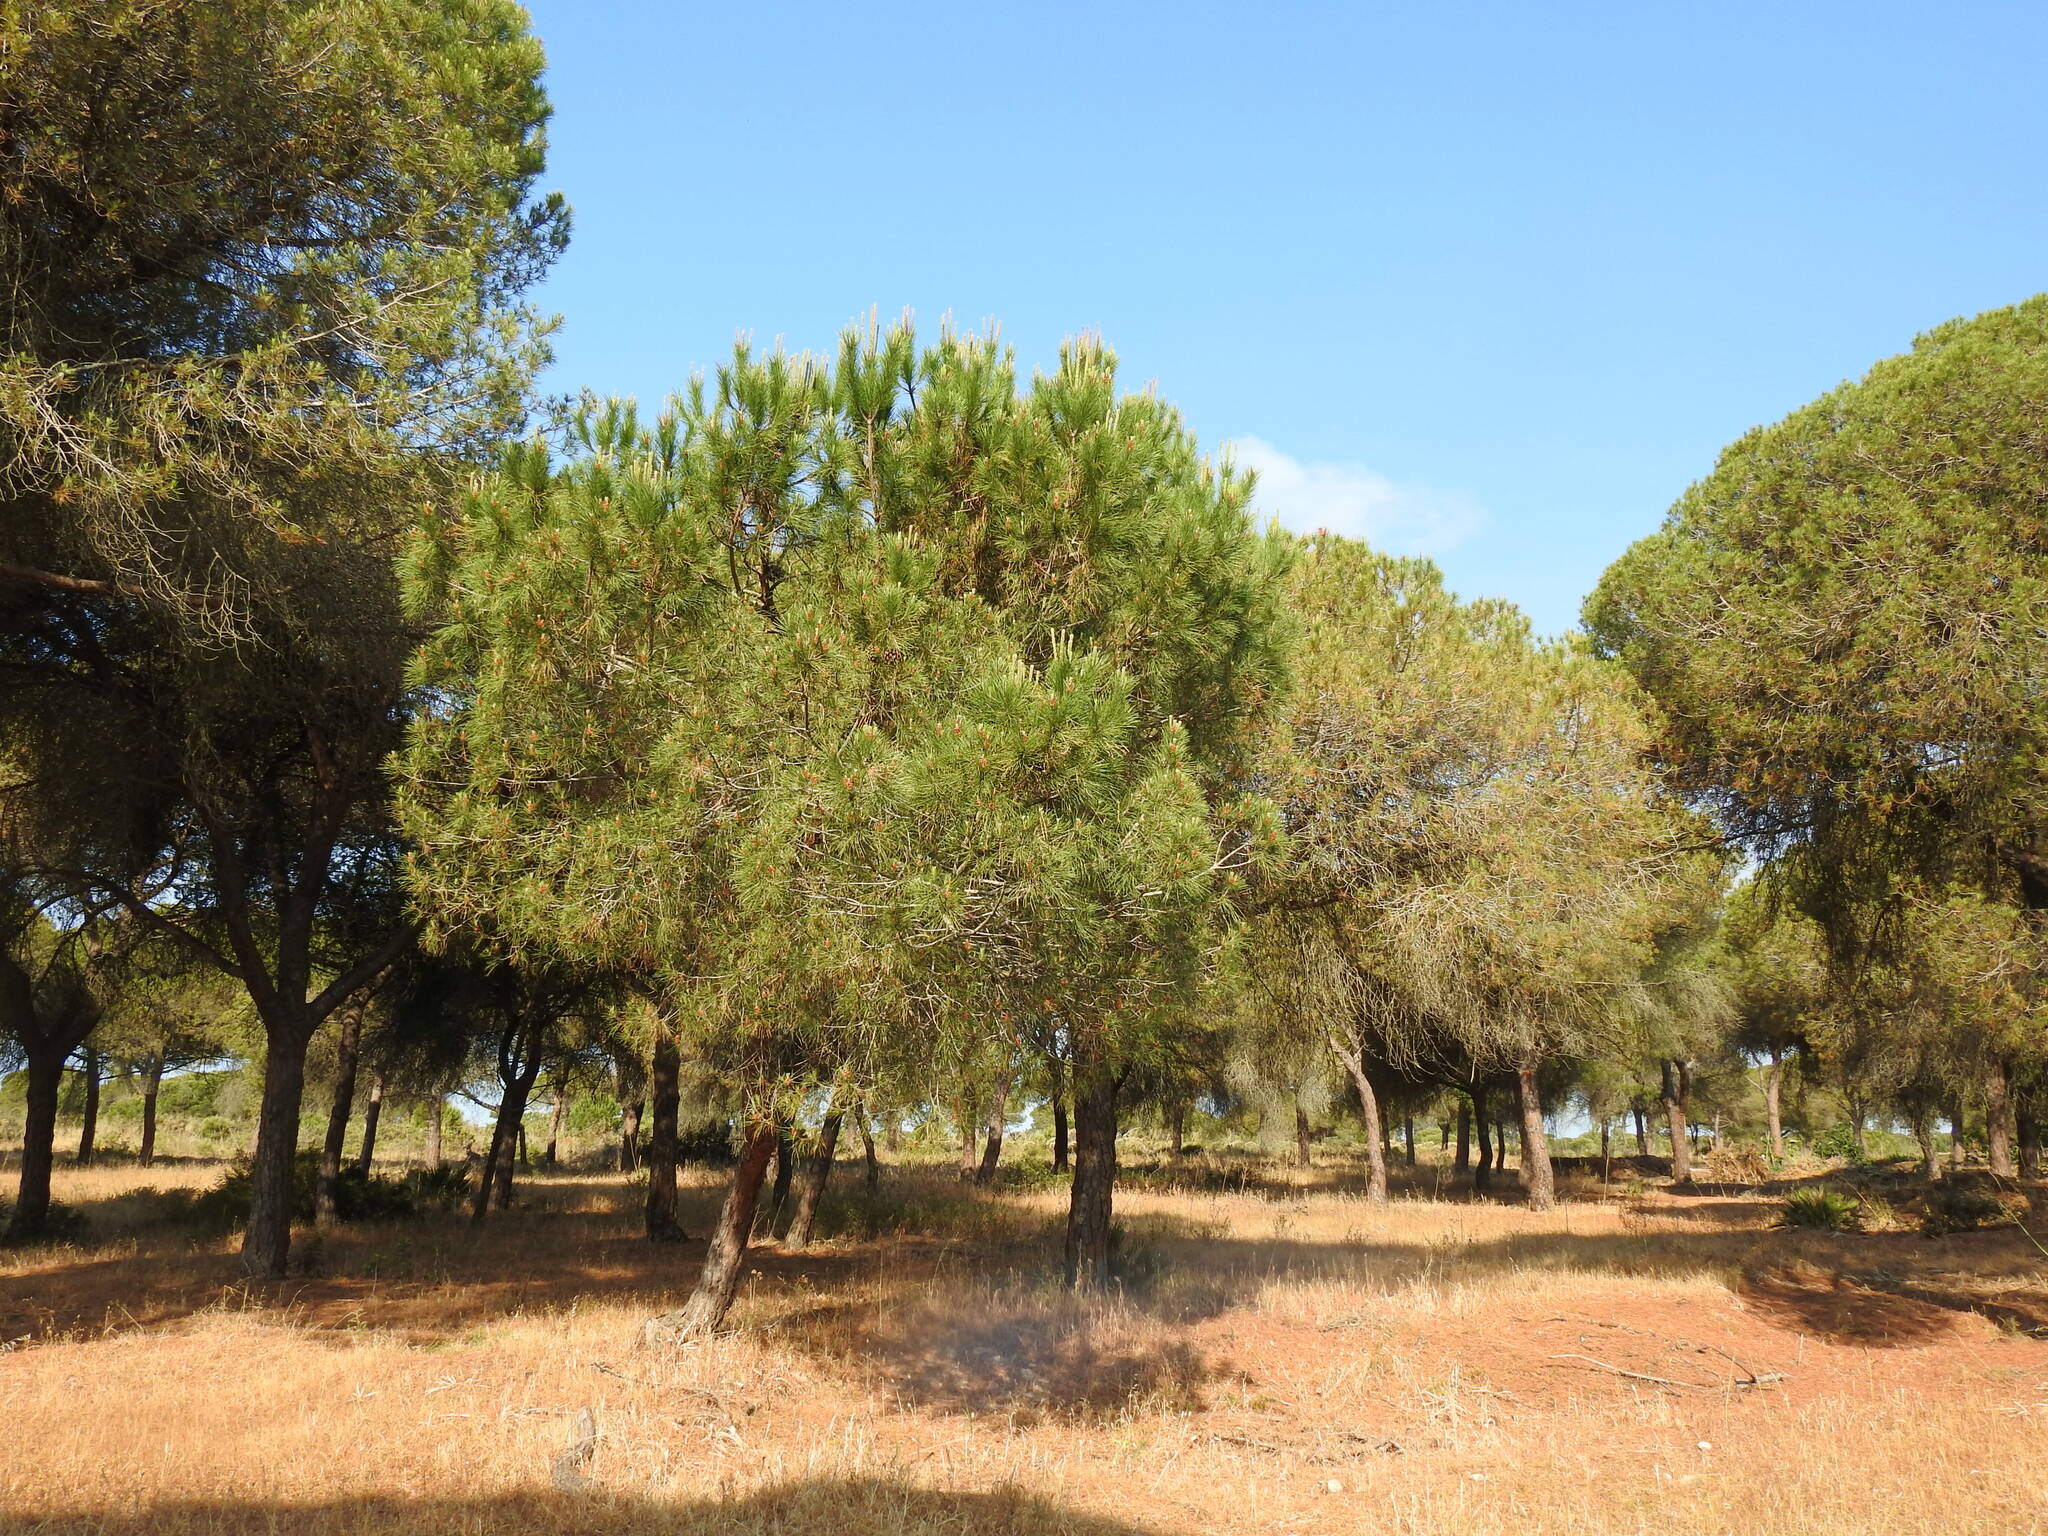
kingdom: Plantae
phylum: Tracheophyta
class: Pinopsida
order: Pinales
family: Pinaceae
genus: Pinus
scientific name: Pinus pinea
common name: Italian stone pine
